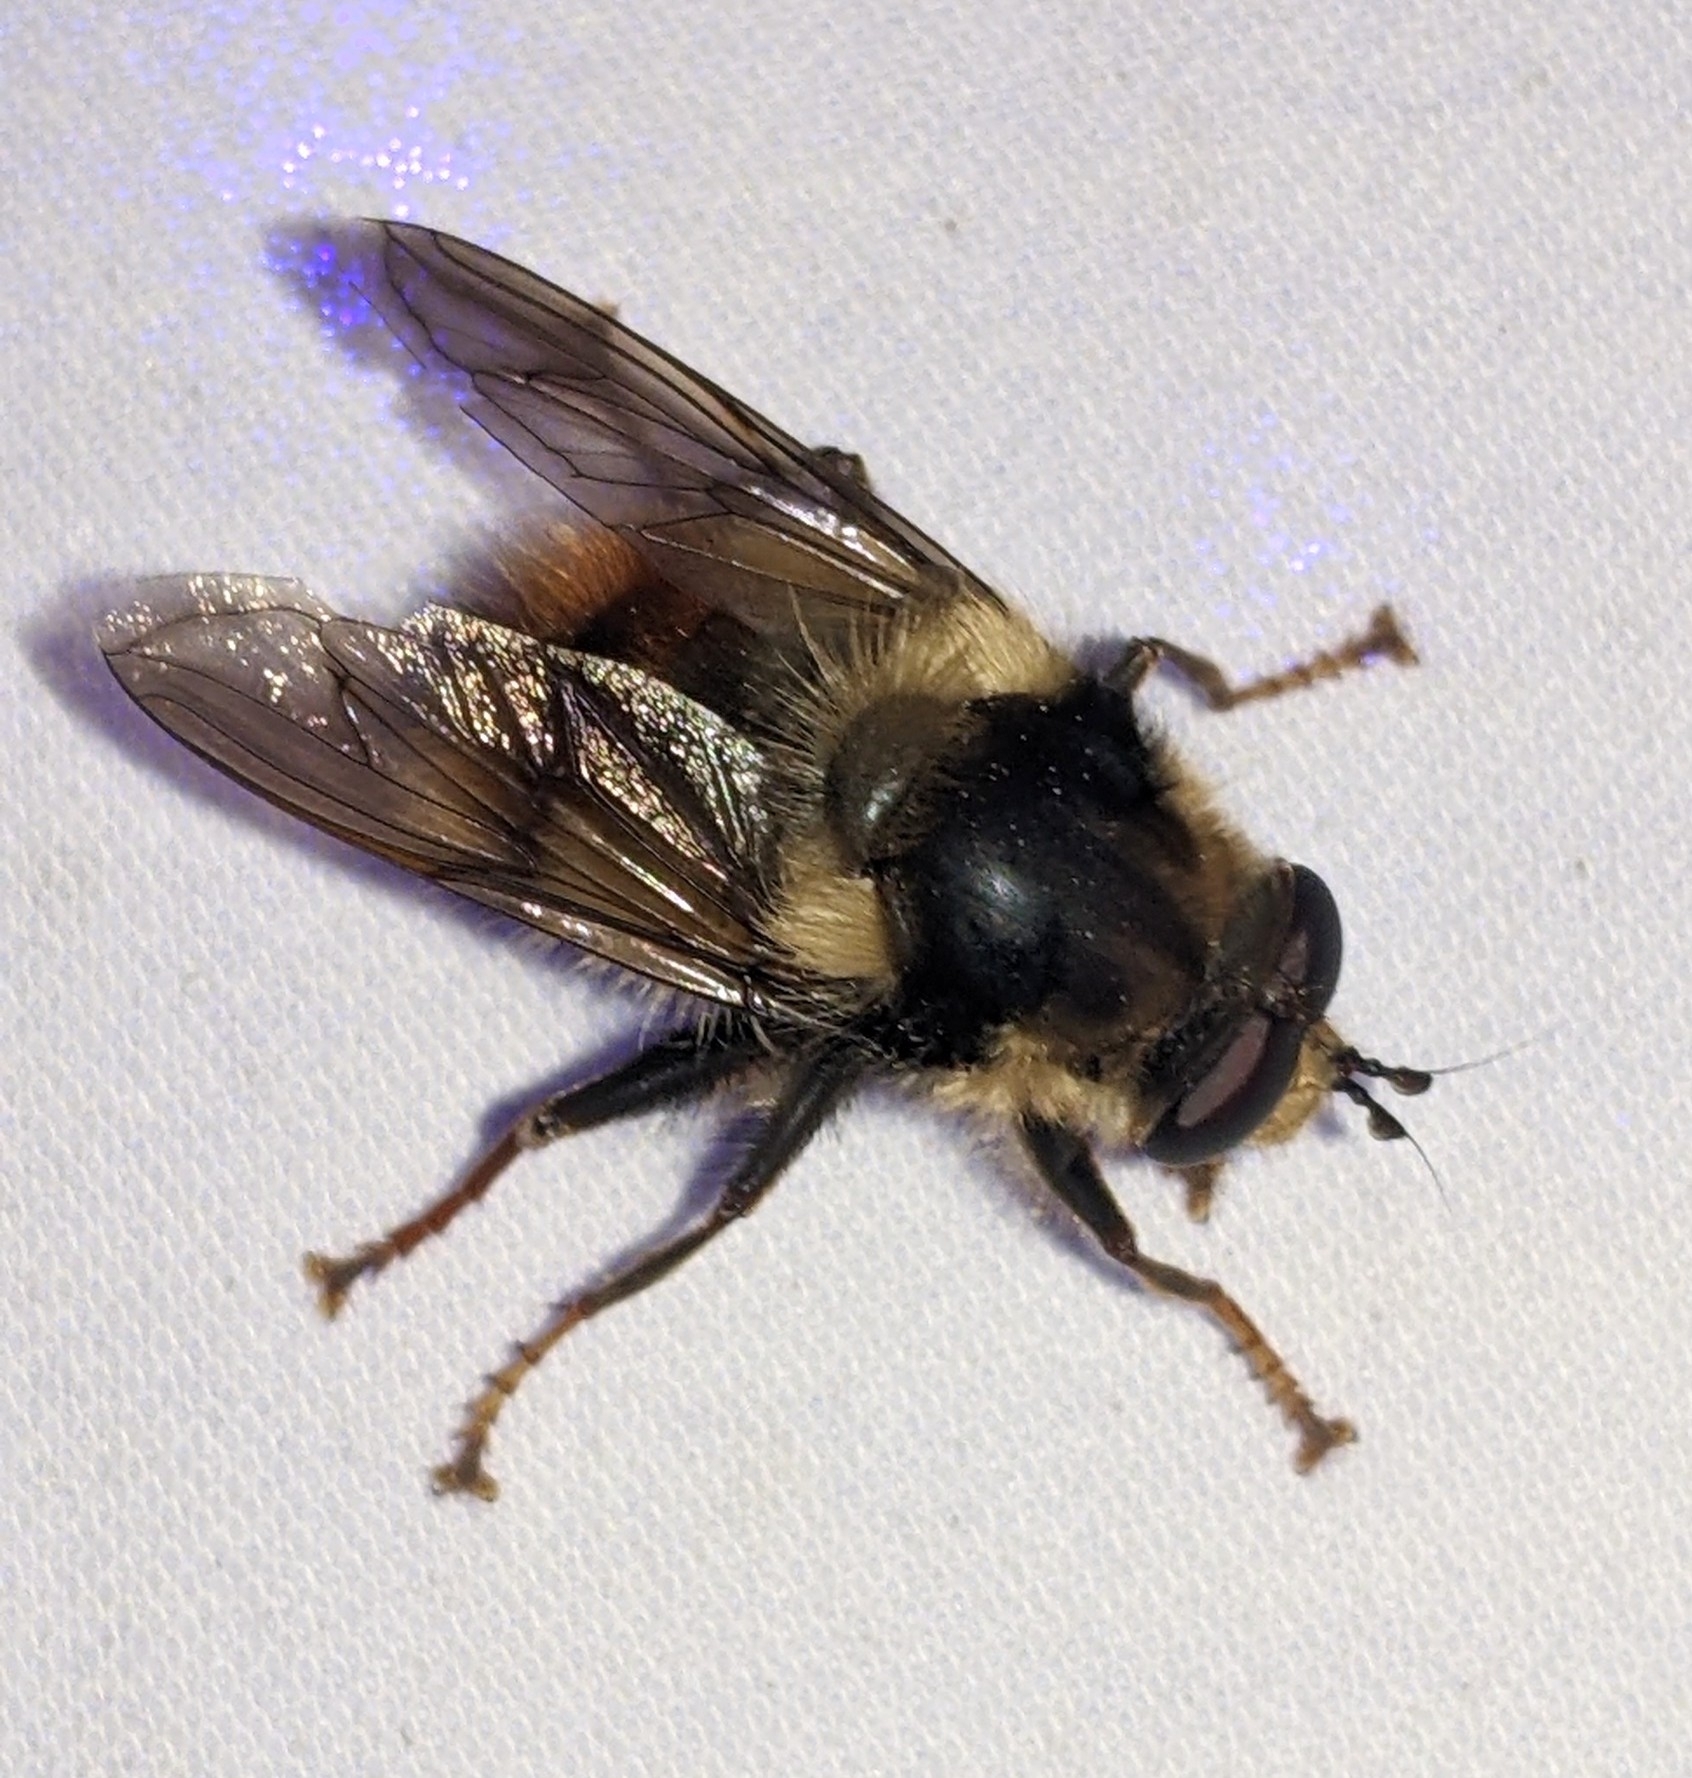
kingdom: Animalia
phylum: Arthropoda
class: Insecta
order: Diptera
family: Syrphidae
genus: Criorhina
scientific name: Criorhina bubulcus
